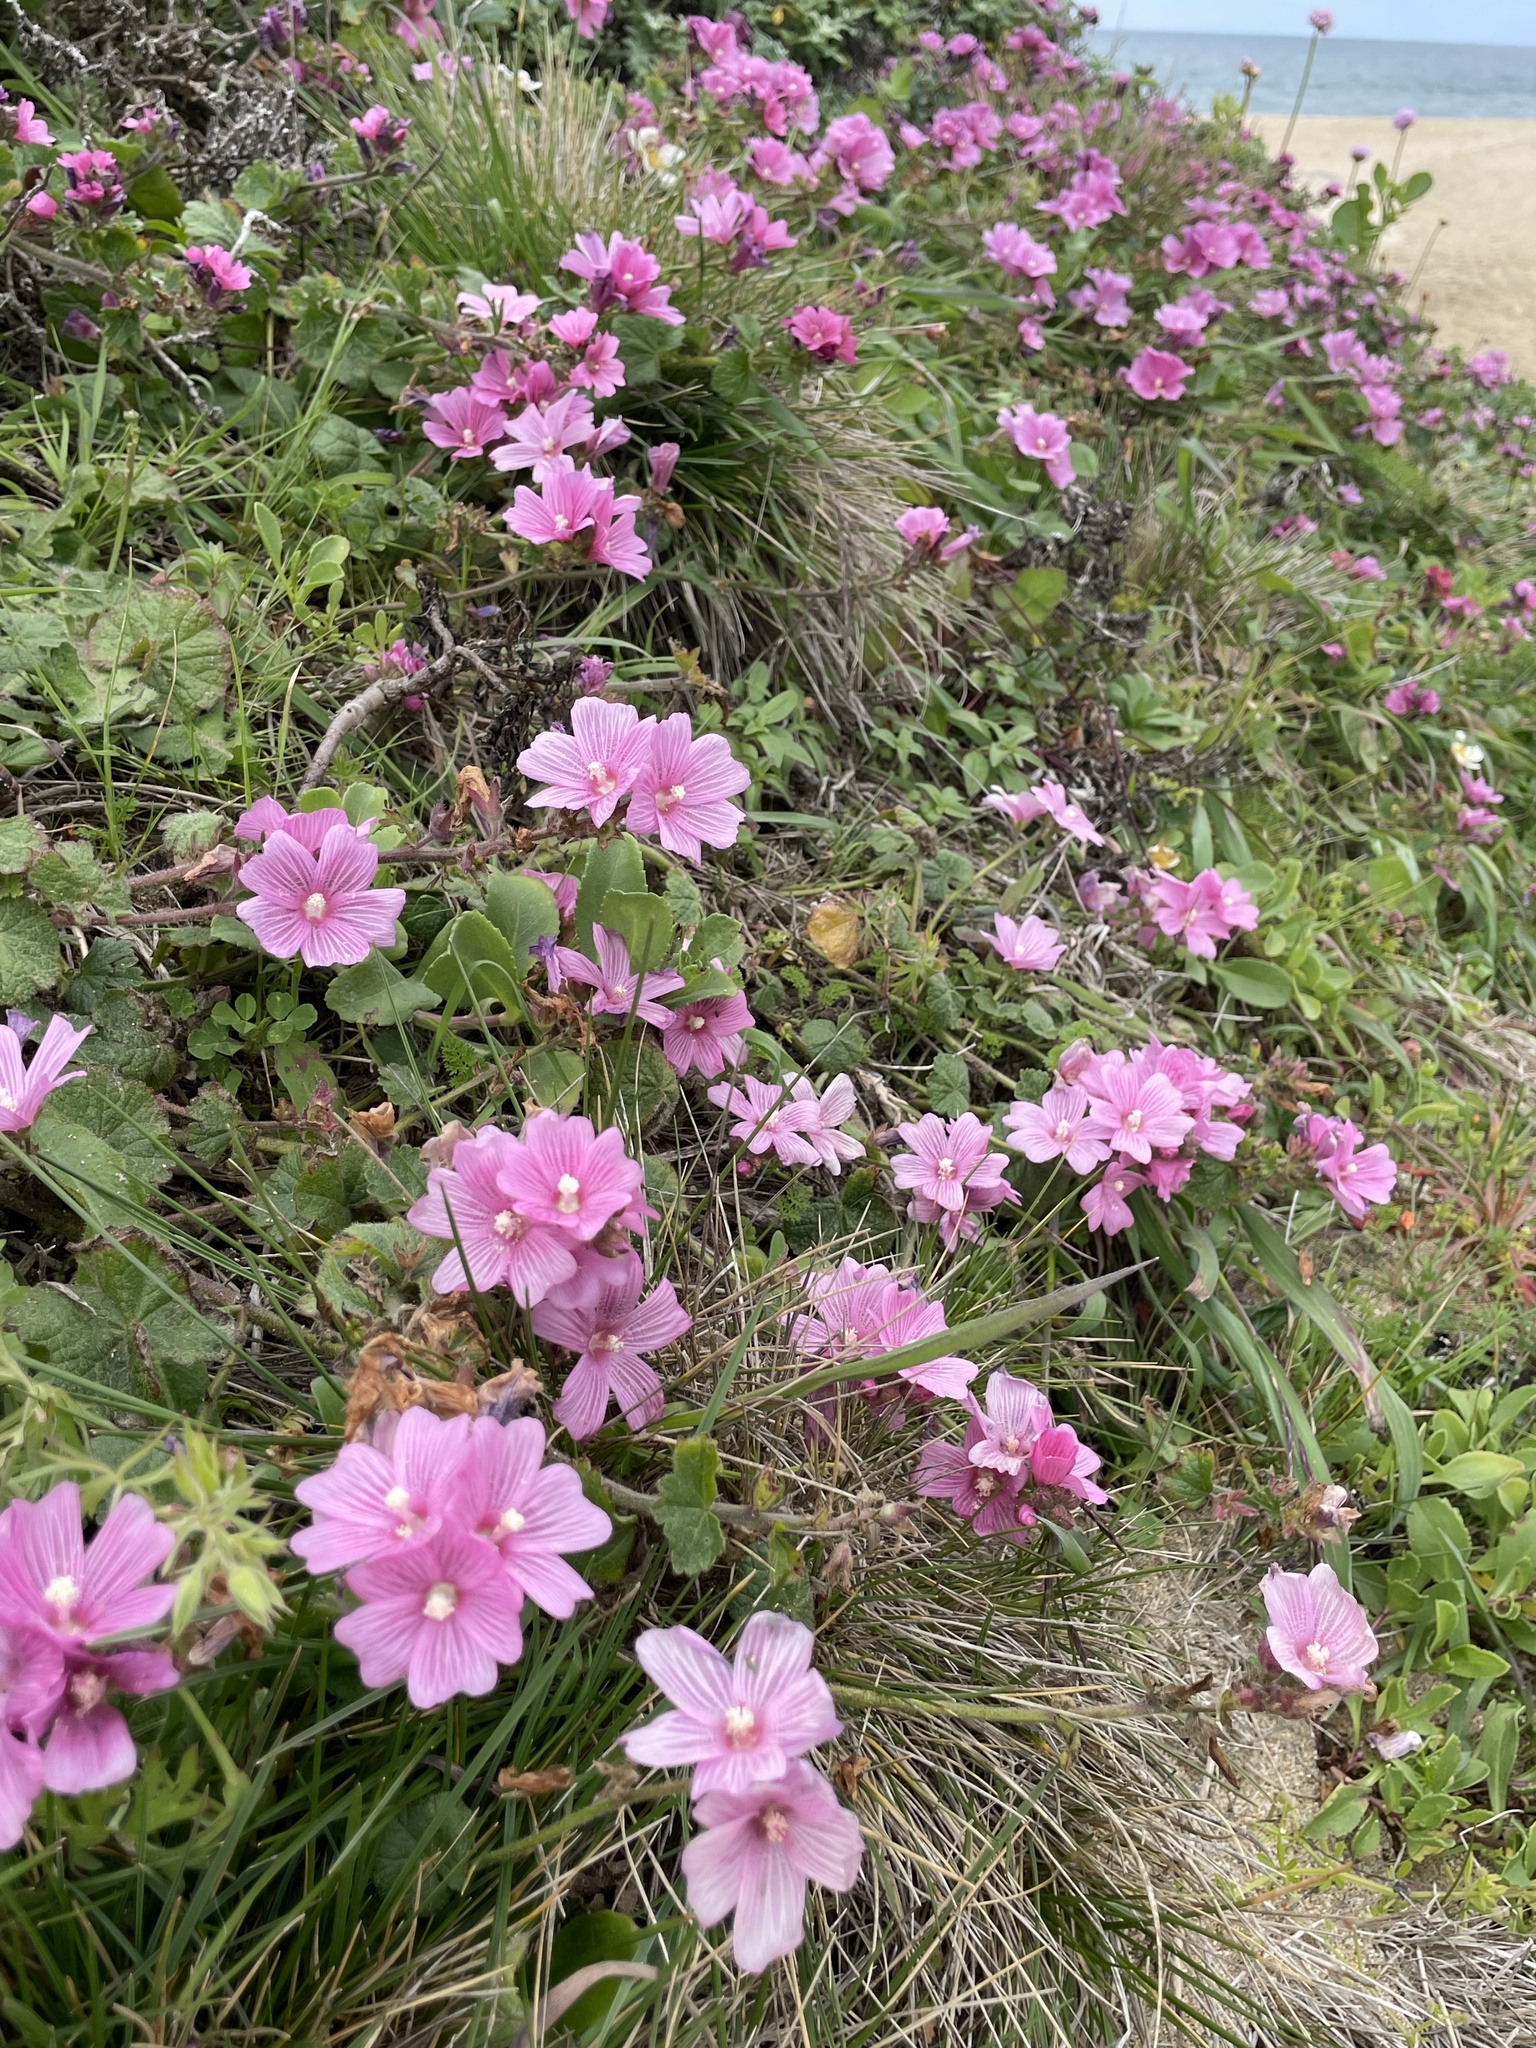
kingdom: Plantae
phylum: Tracheophyta
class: Magnoliopsida
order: Malvales
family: Malvaceae
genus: Sidalcea
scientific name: Sidalcea malviflora
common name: Greek mallow
